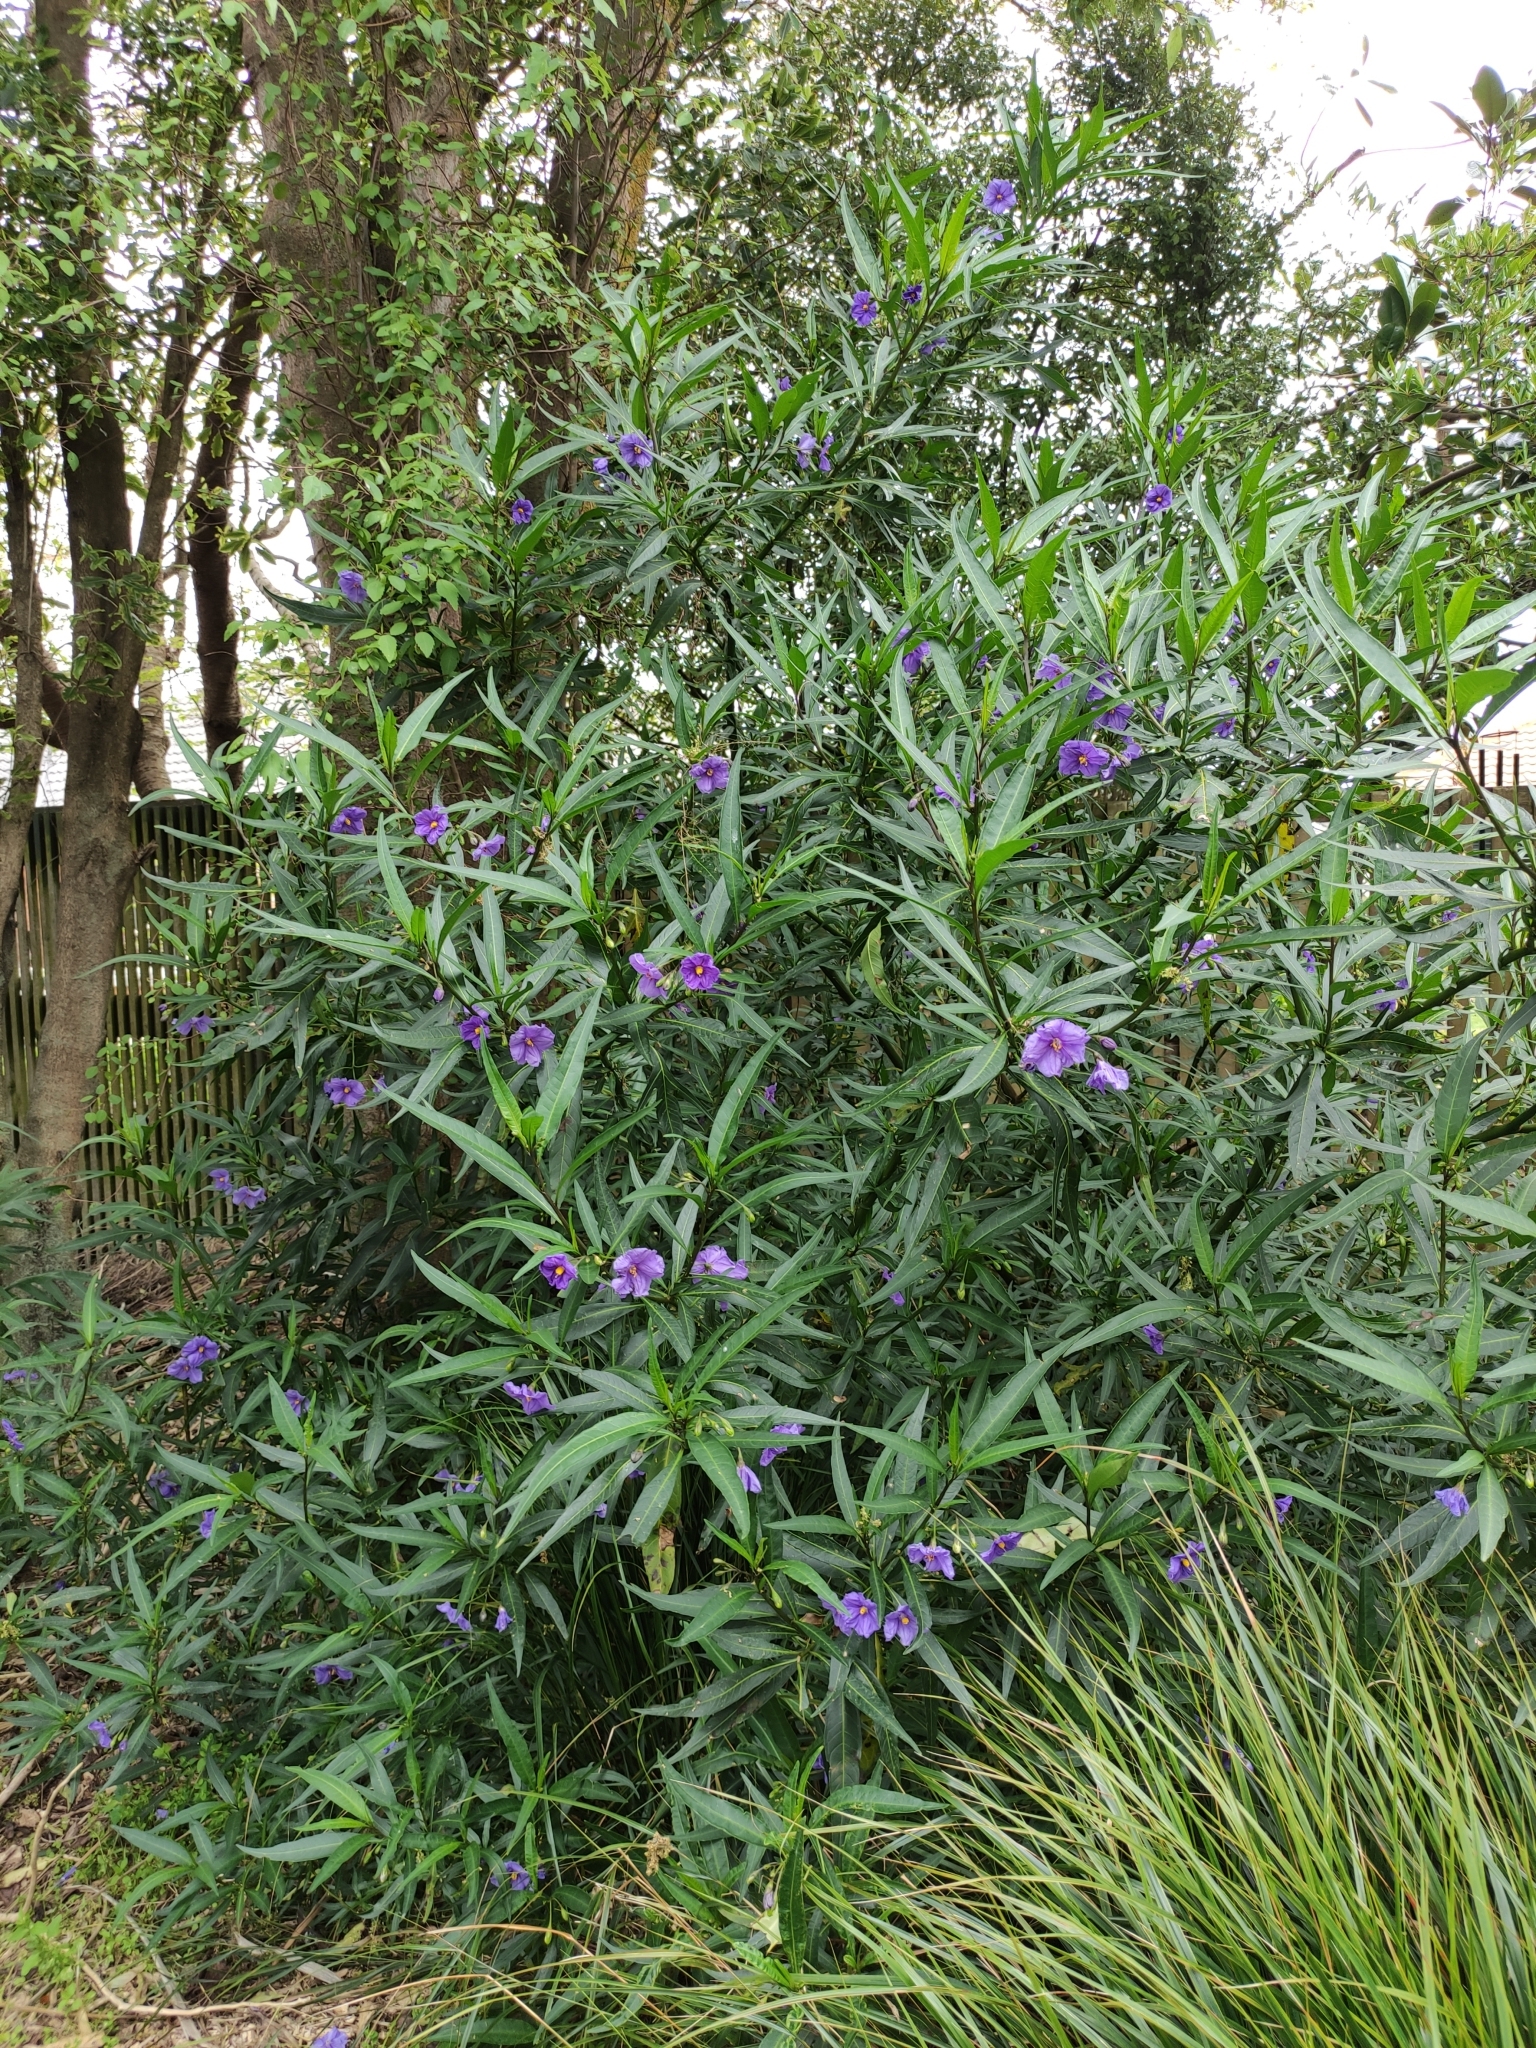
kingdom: Plantae
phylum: Tracheophyta
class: Magnoliopsida
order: Solanales
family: Solanaceae
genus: Solanum
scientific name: Solanum laciniatum
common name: Kangaroo-apple
